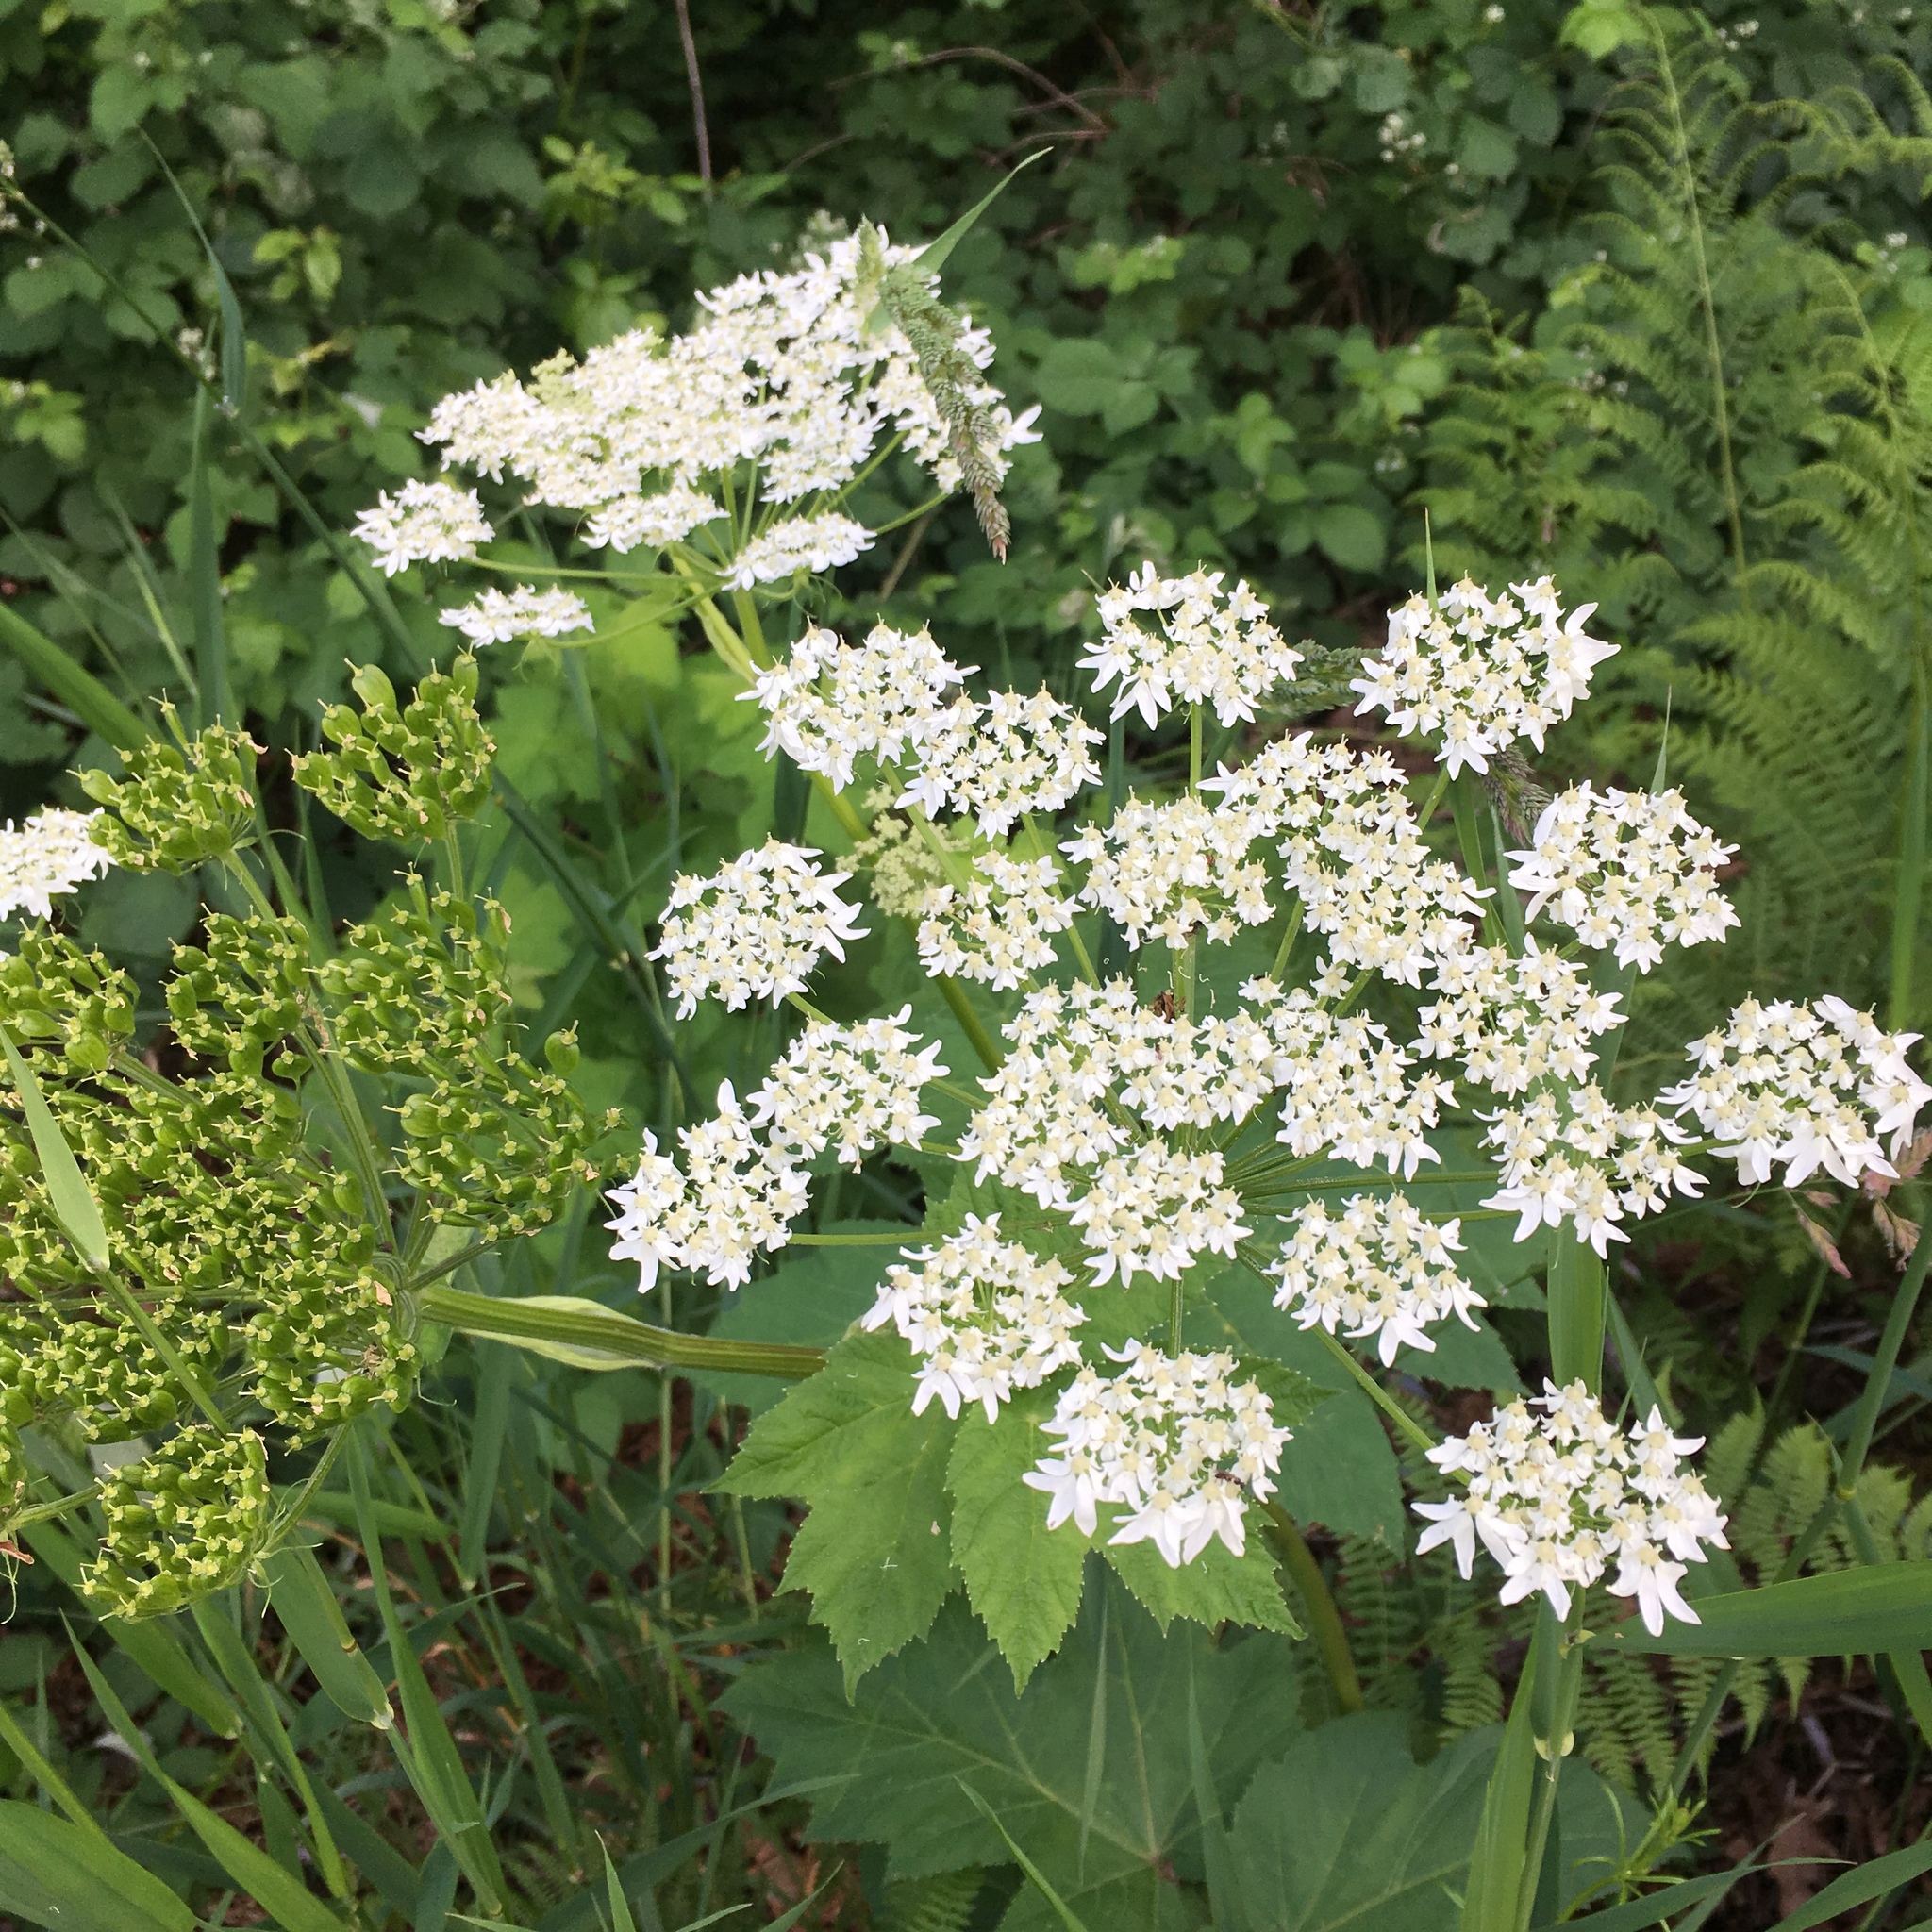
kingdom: Plantae
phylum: Tracheophyta
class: Magnoliopsida
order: Apiales
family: Apiaceae
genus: Heracleum
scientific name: Heracleum maximum
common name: American cow parsnip
